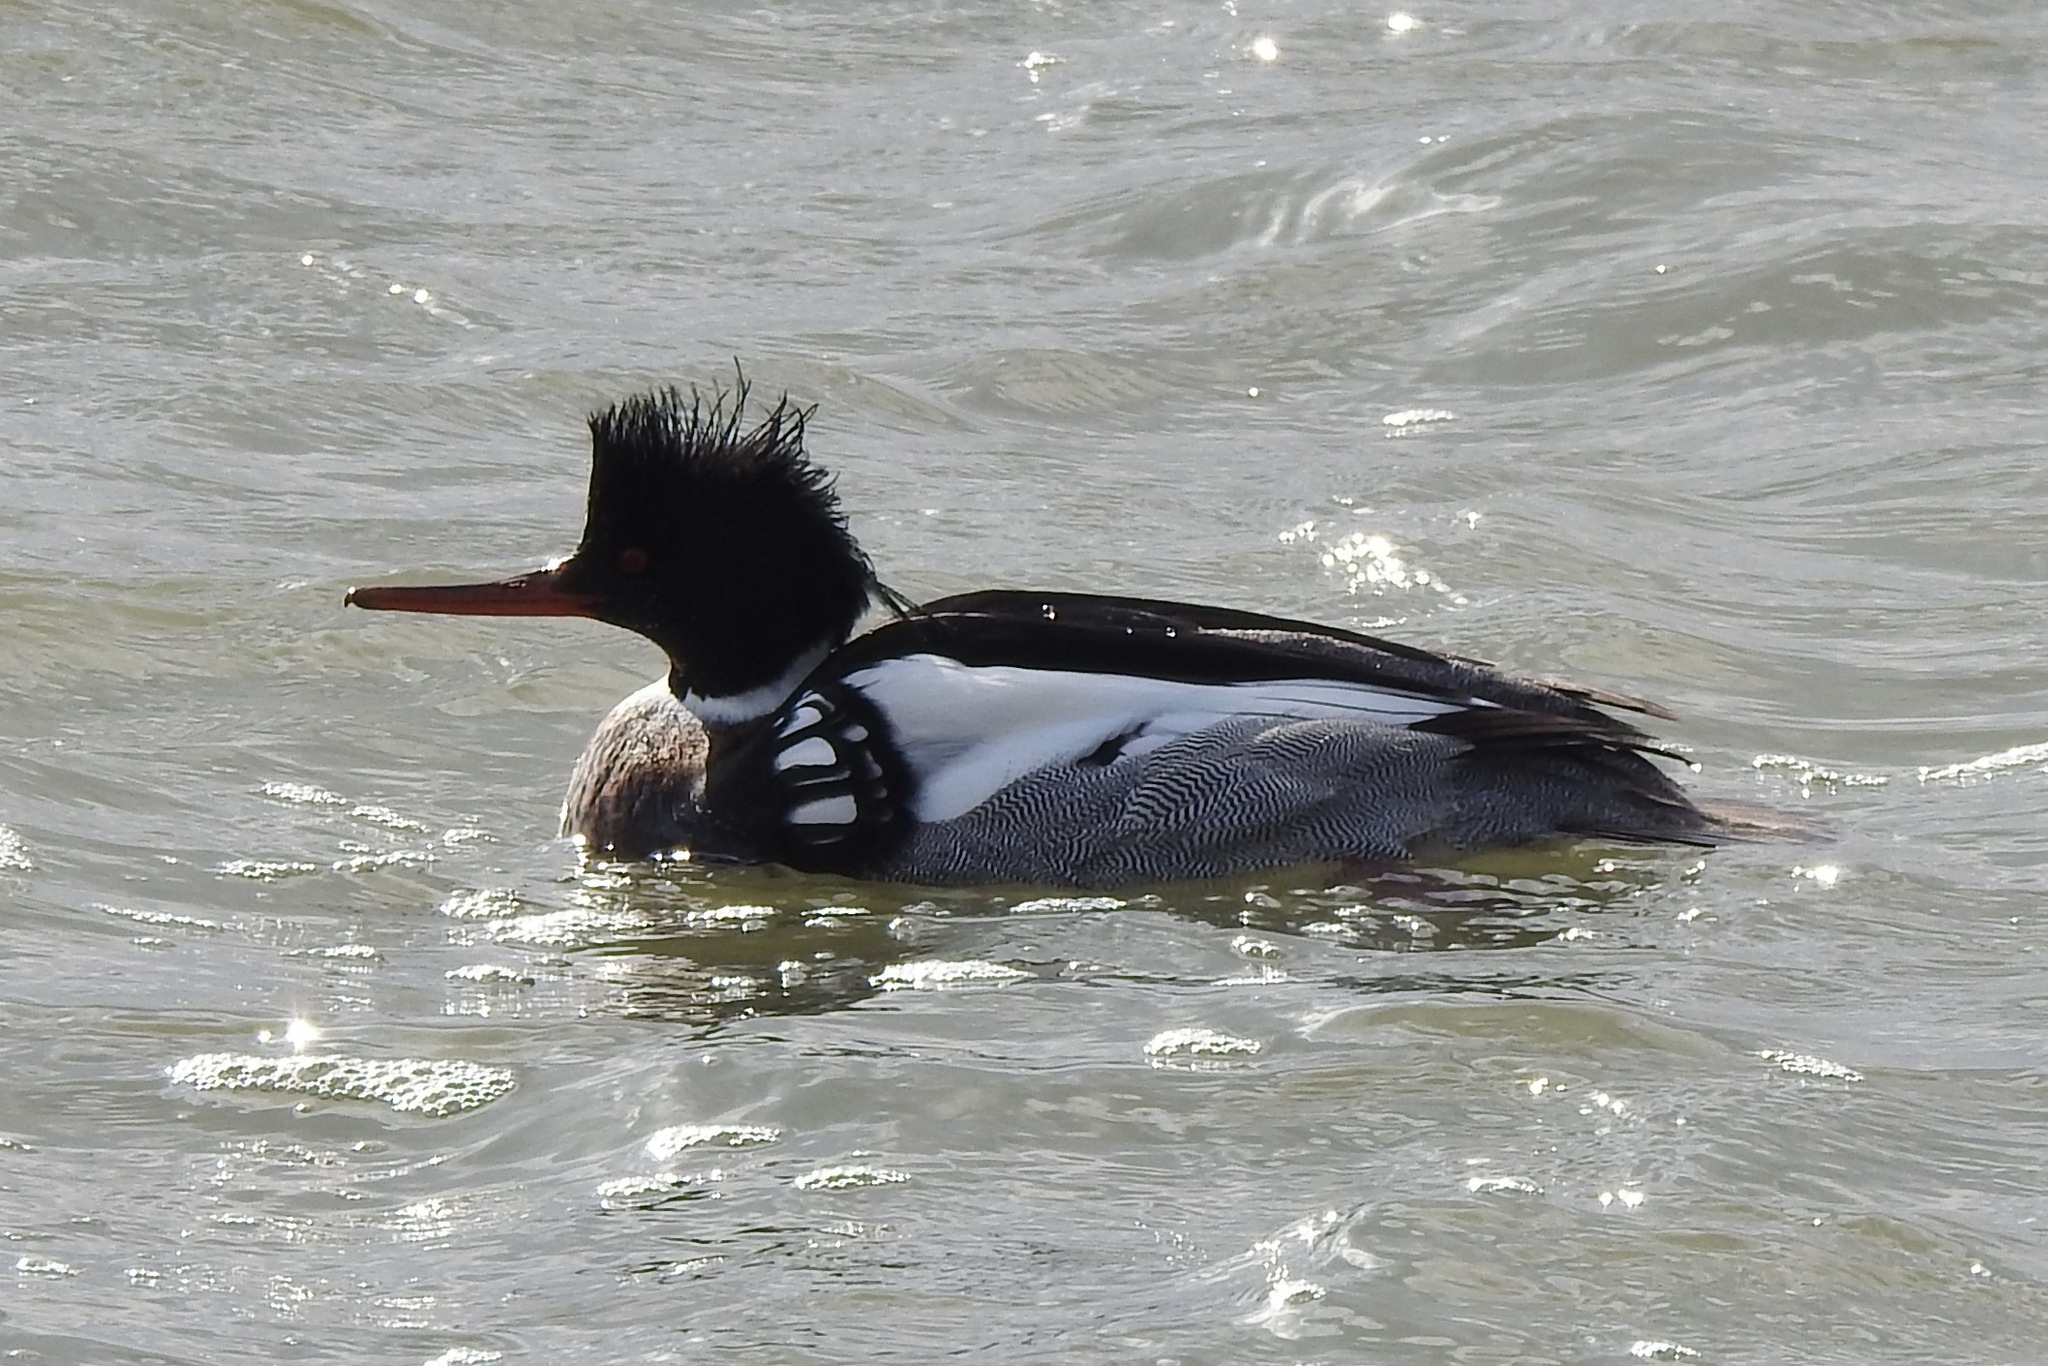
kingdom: Animalia
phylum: Chordata
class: Aves
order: Anseriformes
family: Anatidae
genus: Mergus
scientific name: Mergus serrator
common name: Red-breasted merganser
